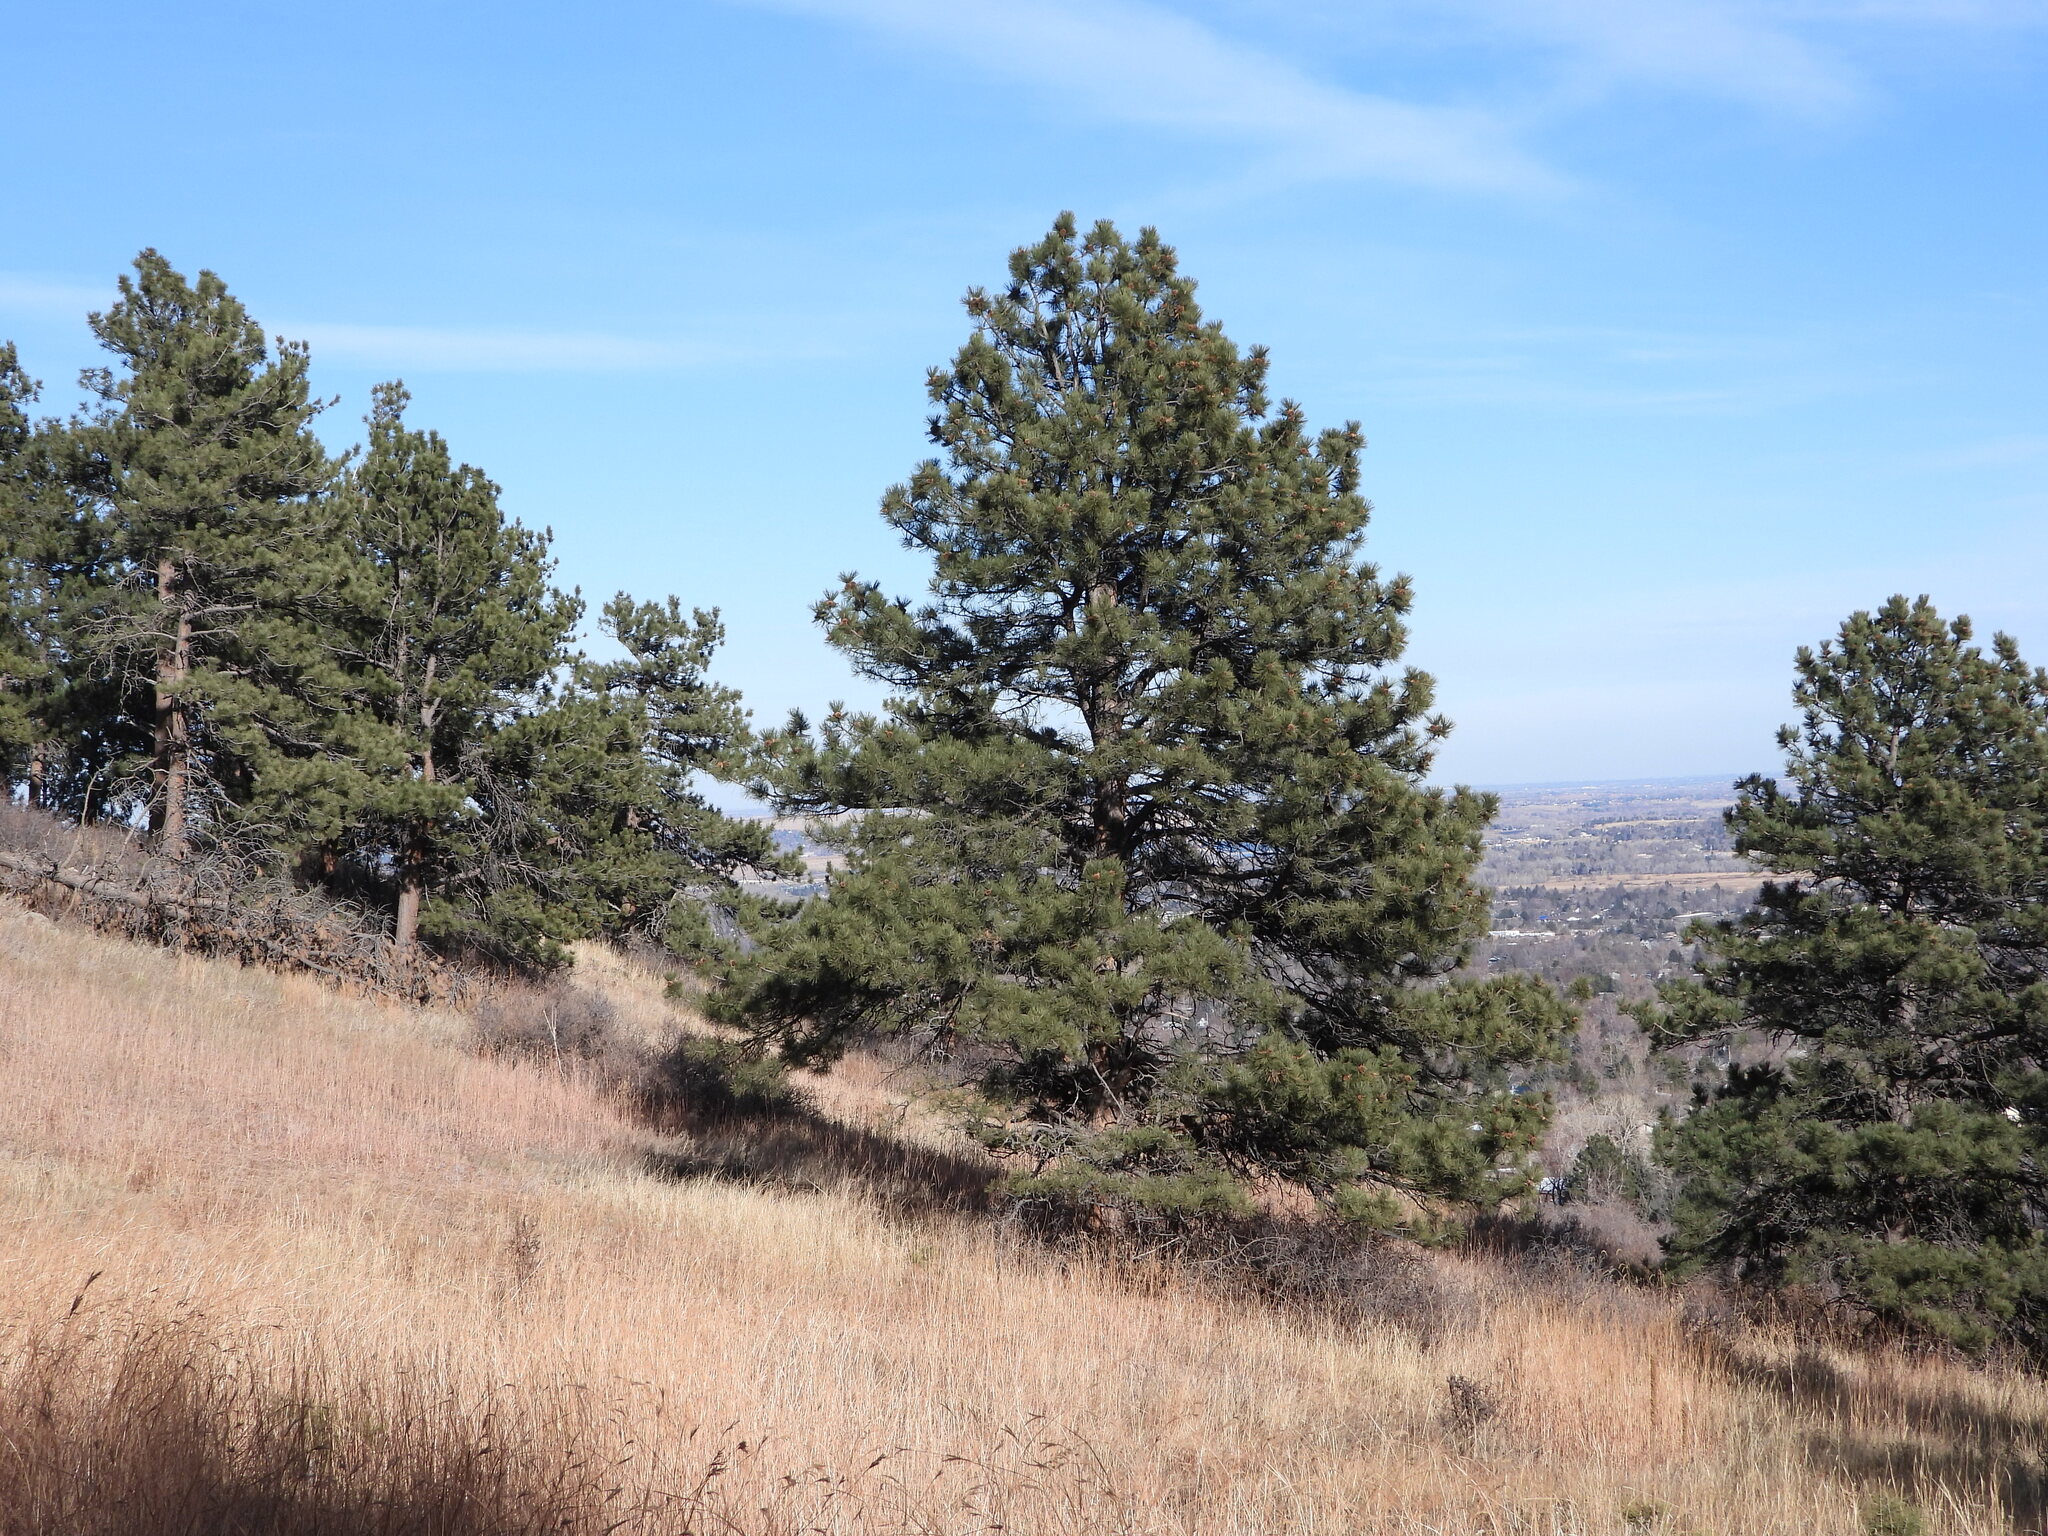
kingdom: Plantae
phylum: Tracheophyta
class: Pinopsida
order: Pinales
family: Pinaceae
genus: Pinus
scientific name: Pinus ponderosa
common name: Western yellow-pine
